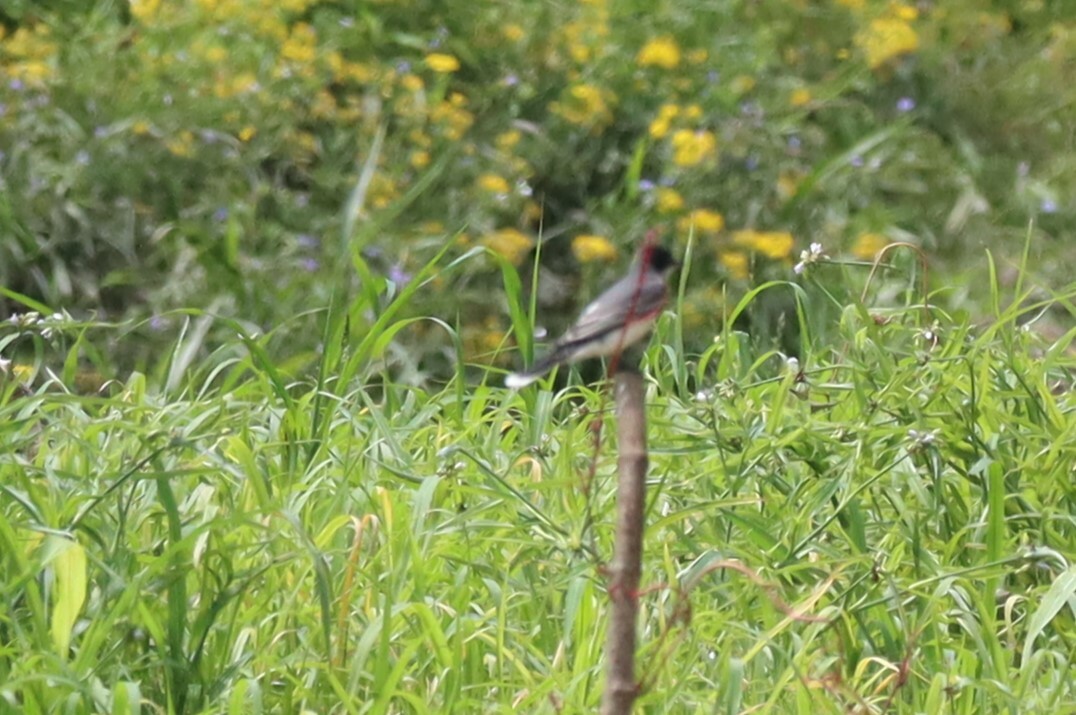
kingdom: Animalia
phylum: Chordata
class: Aves
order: Passeriformes
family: Tyrannidae
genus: Tyrannus
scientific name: Tyrannus tyrannus
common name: Eastern kingbird
